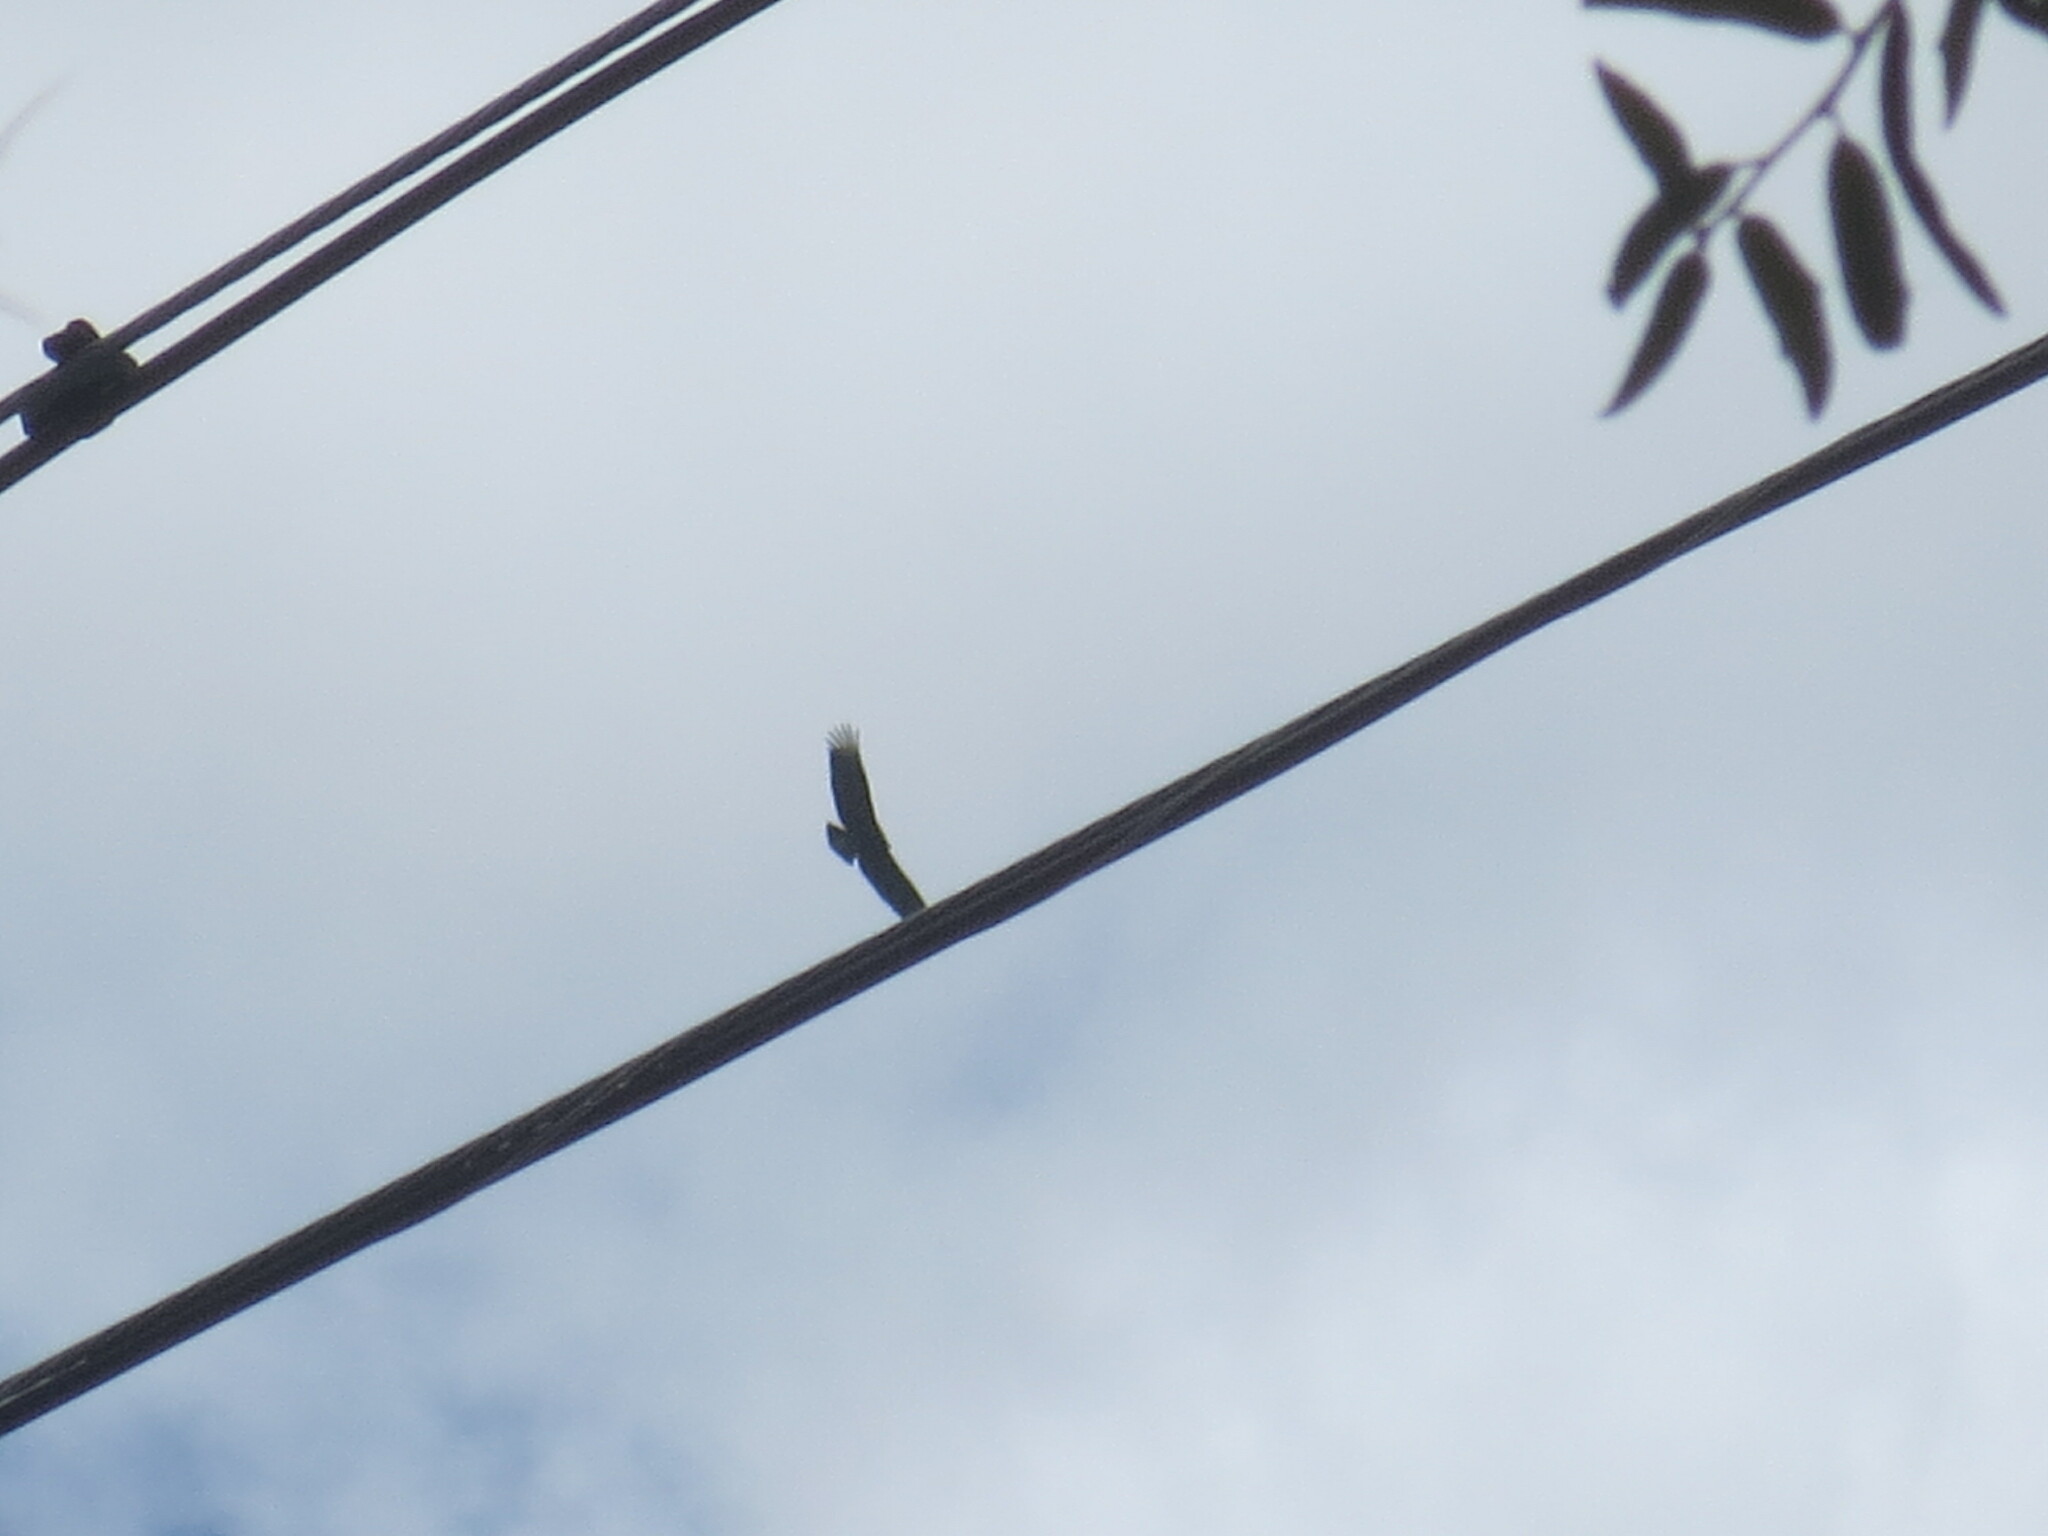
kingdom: Animalia
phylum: Chordata
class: Aves
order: Accipitriformes
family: Cathartidae
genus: Coragyps
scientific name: Coragyps atratus
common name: Black vulture
